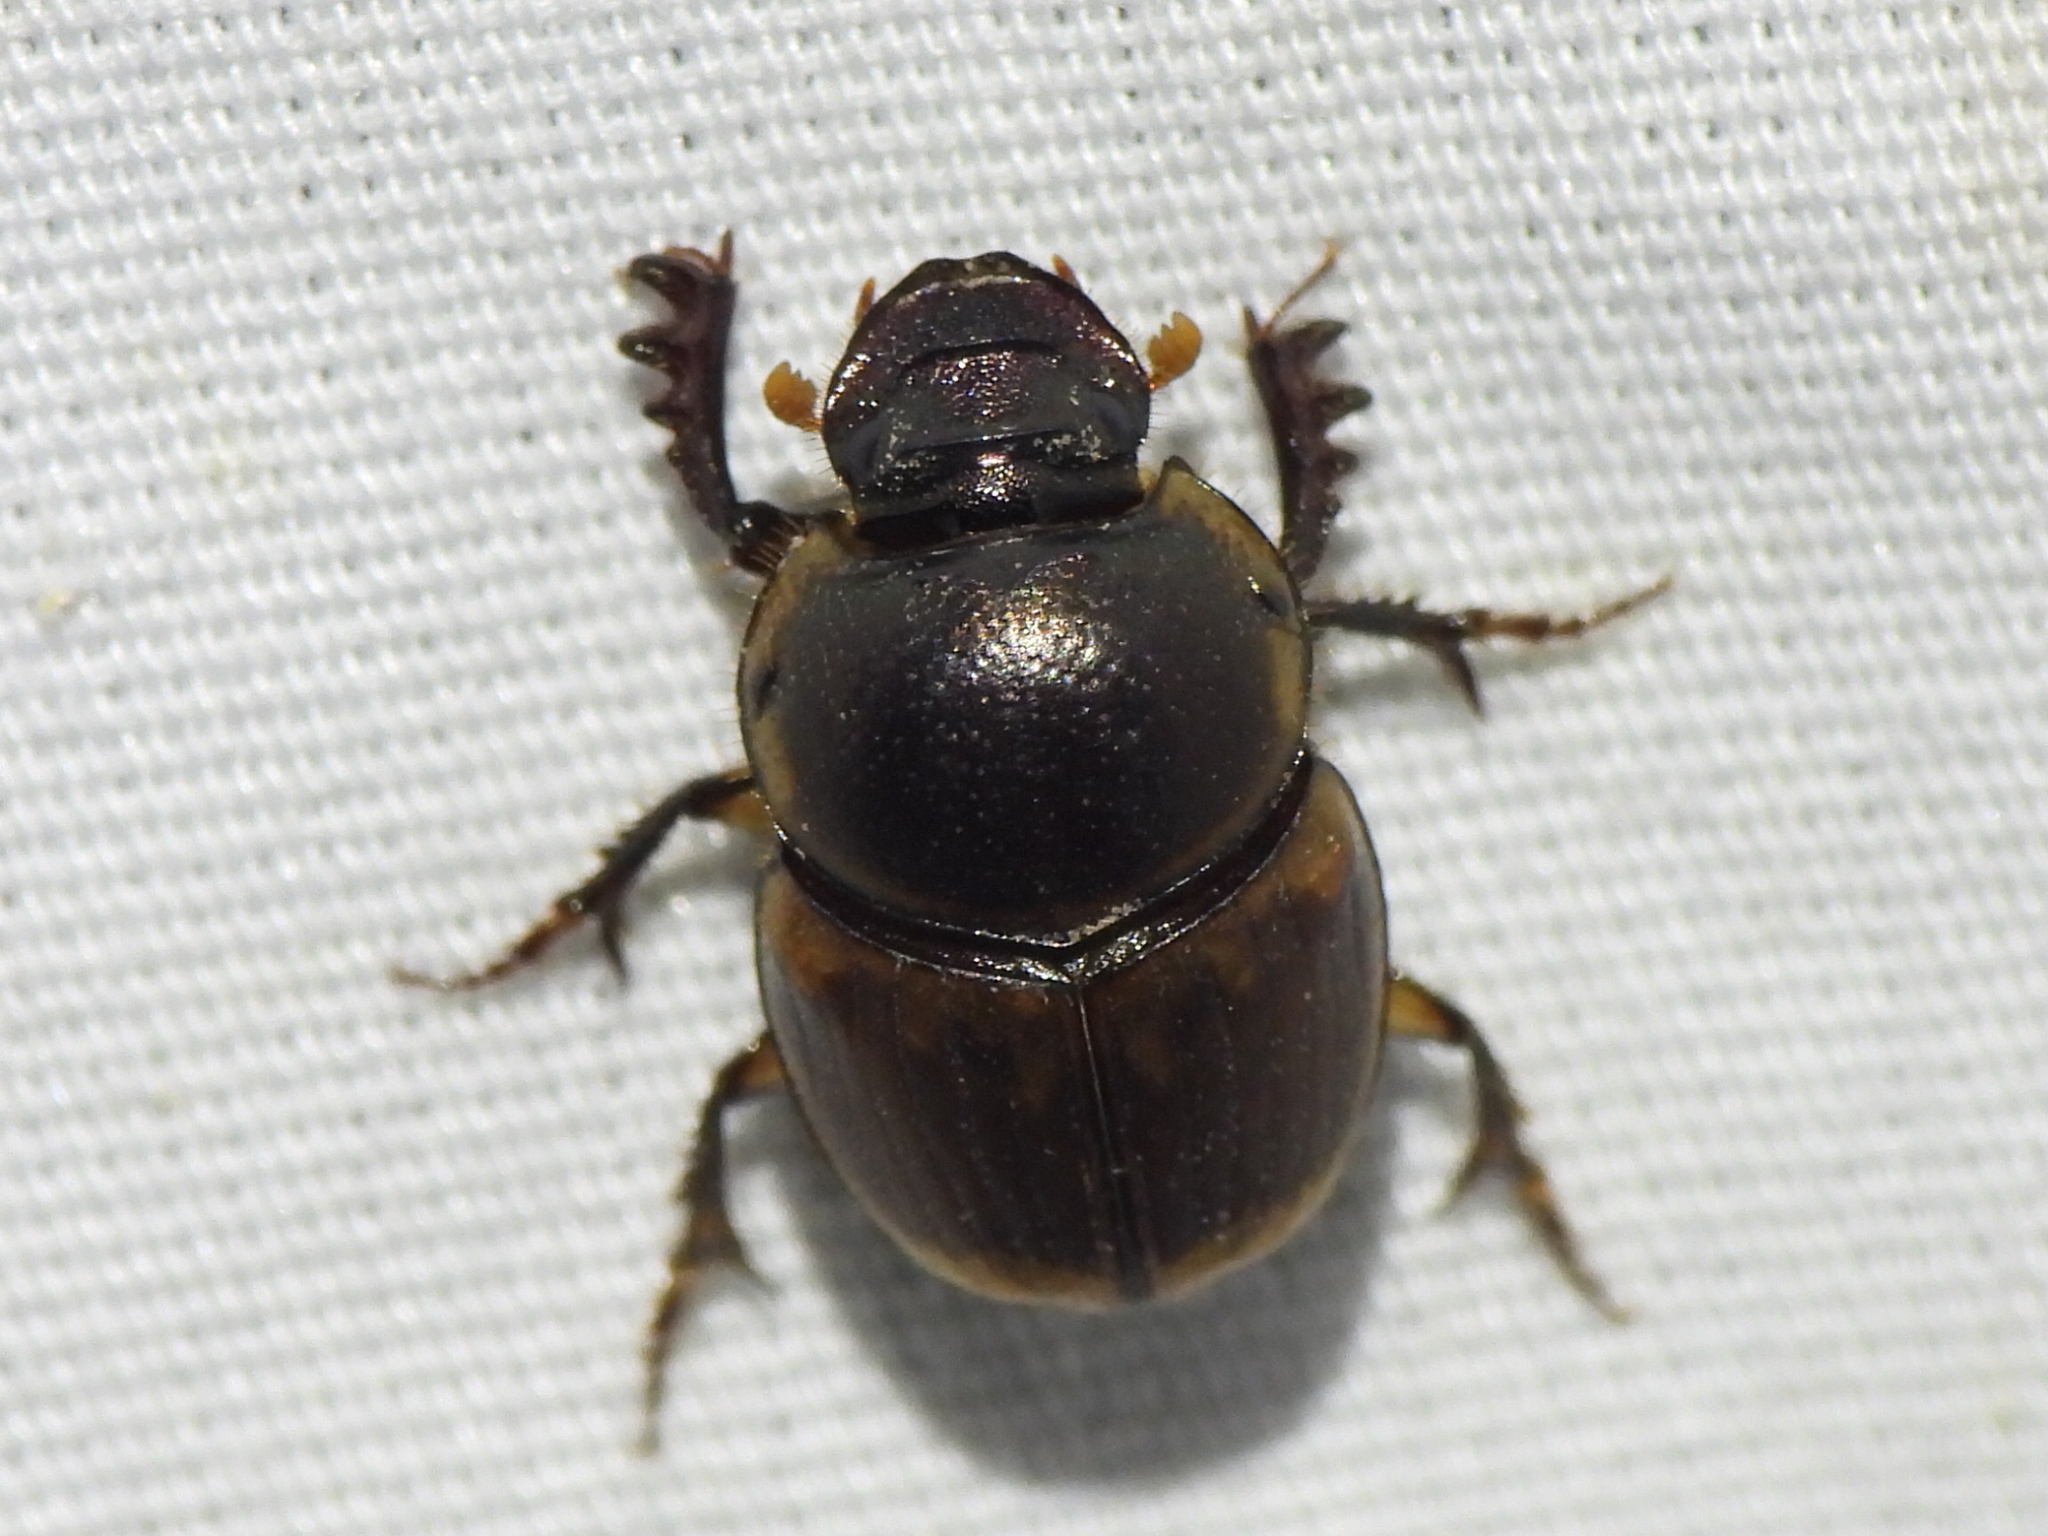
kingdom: Animalia
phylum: Arthropoda
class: Insecta
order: Coleoptera
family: Scarabaeidae
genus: Digitonthophagus
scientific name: Digitonthophagus gazella
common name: Brown dung beetle
